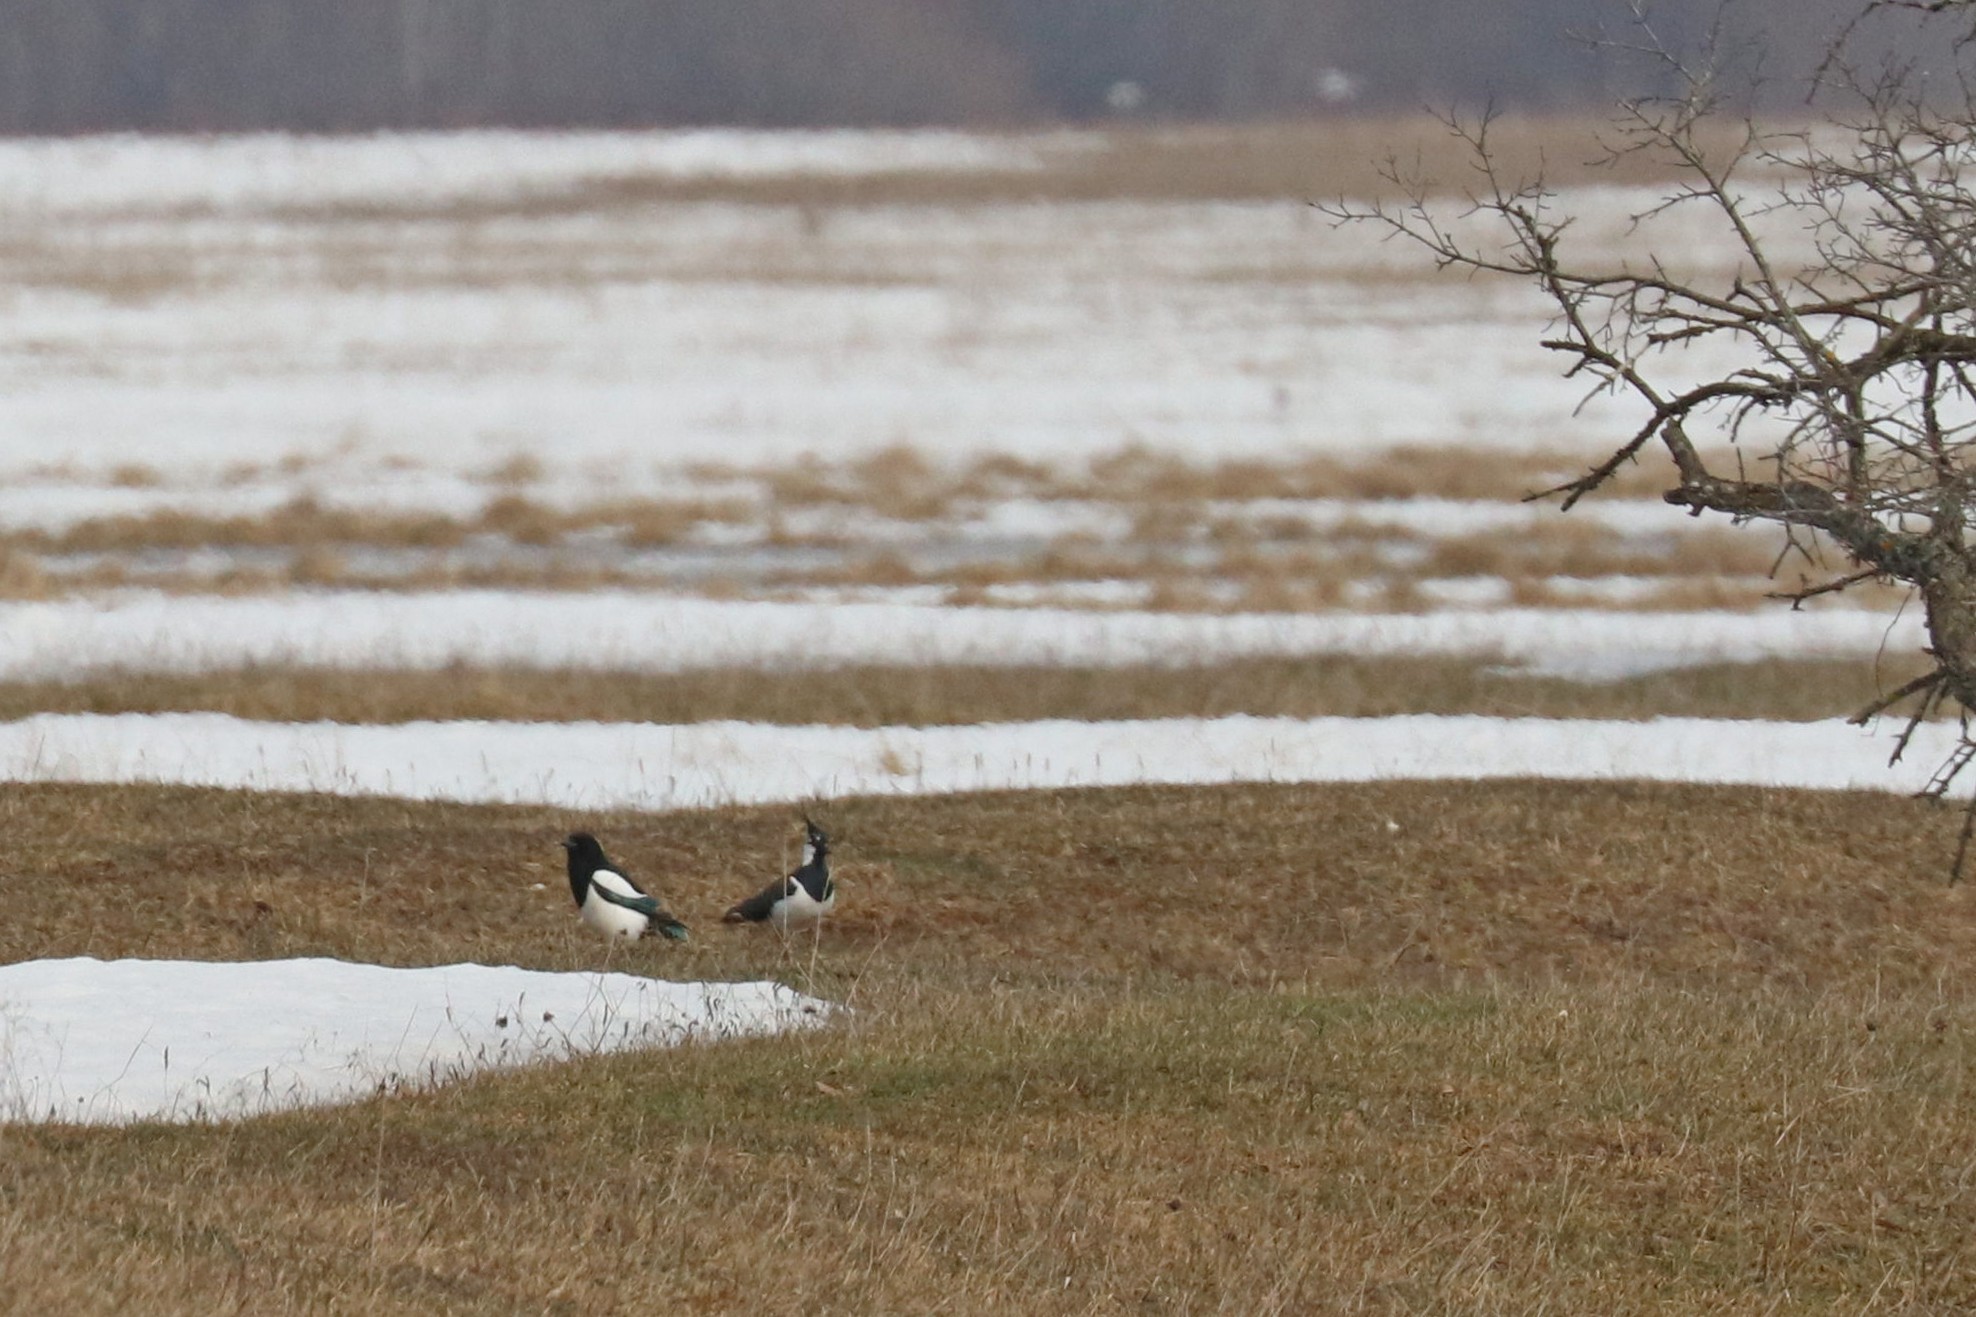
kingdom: Animalia
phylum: Chordata
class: Aves
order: Charadriiformes
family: Charadriidae
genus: Vanellus
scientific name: Vanellus vanellus
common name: Northern lapwing
